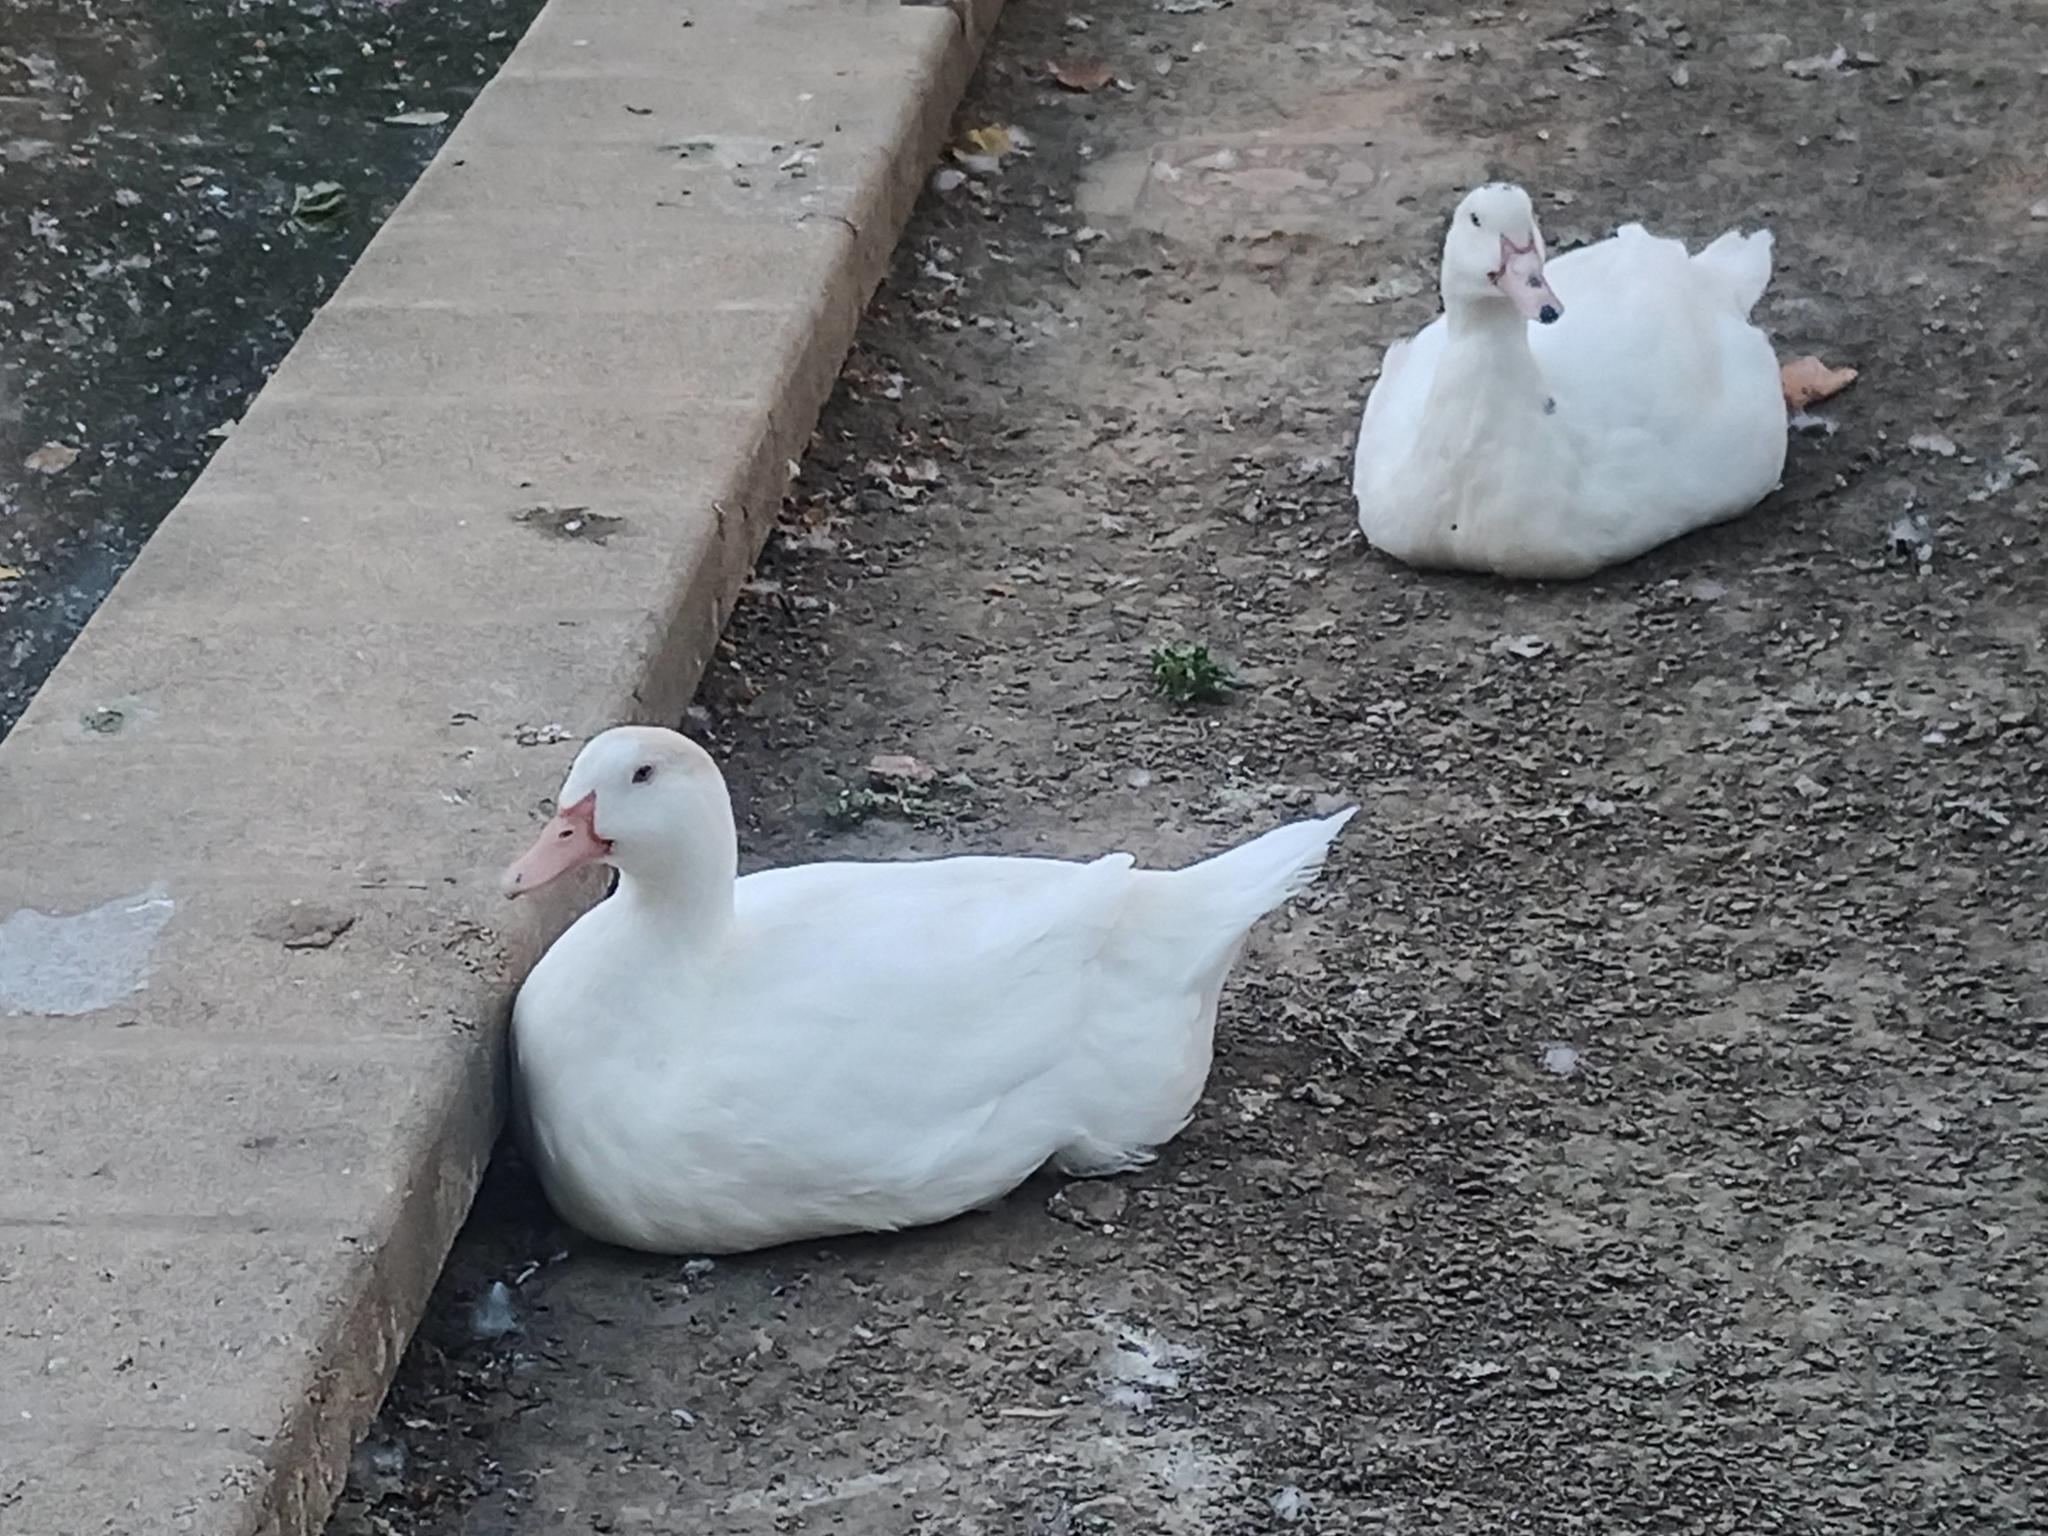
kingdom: Animalia
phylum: Chordata
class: Aves
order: Anseriformes
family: Anatidae
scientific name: Anatidae
